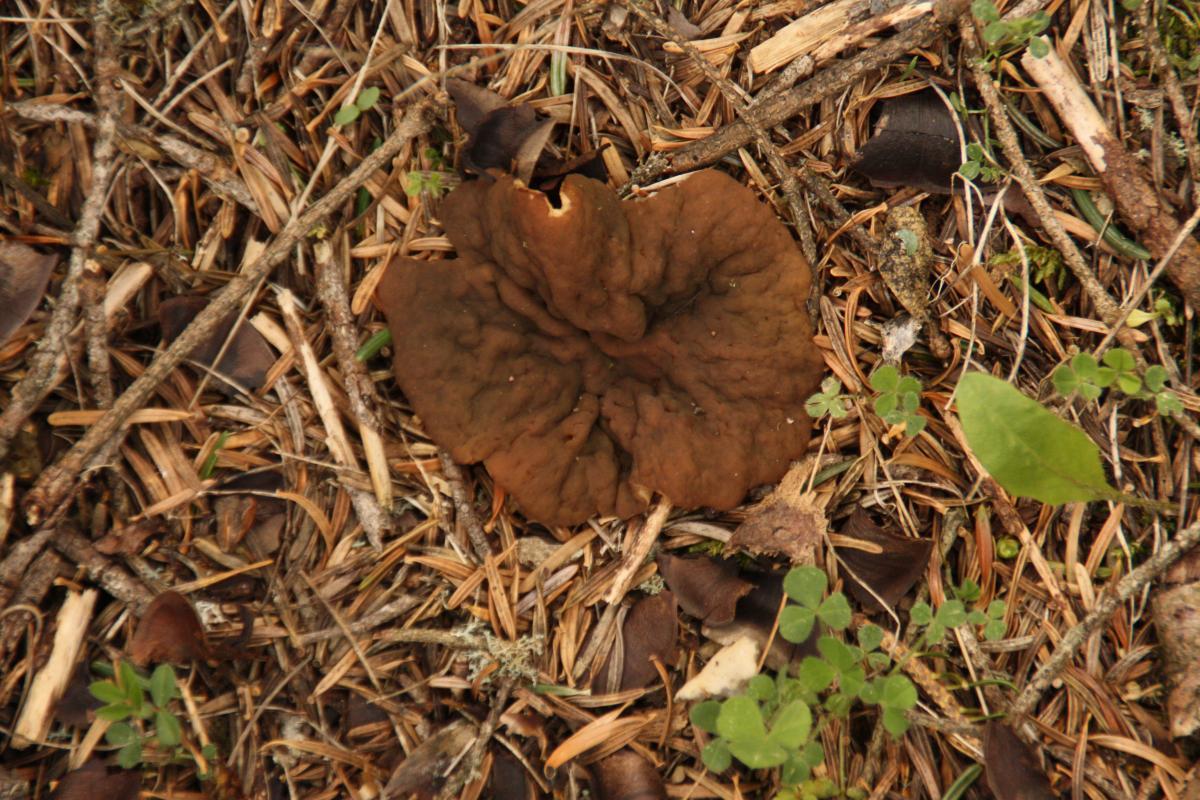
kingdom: Fungi
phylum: Ascomycota
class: Pezizomycetes
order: Pezizales
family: Discinaceae
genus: Discina
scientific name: Discina ancilis
